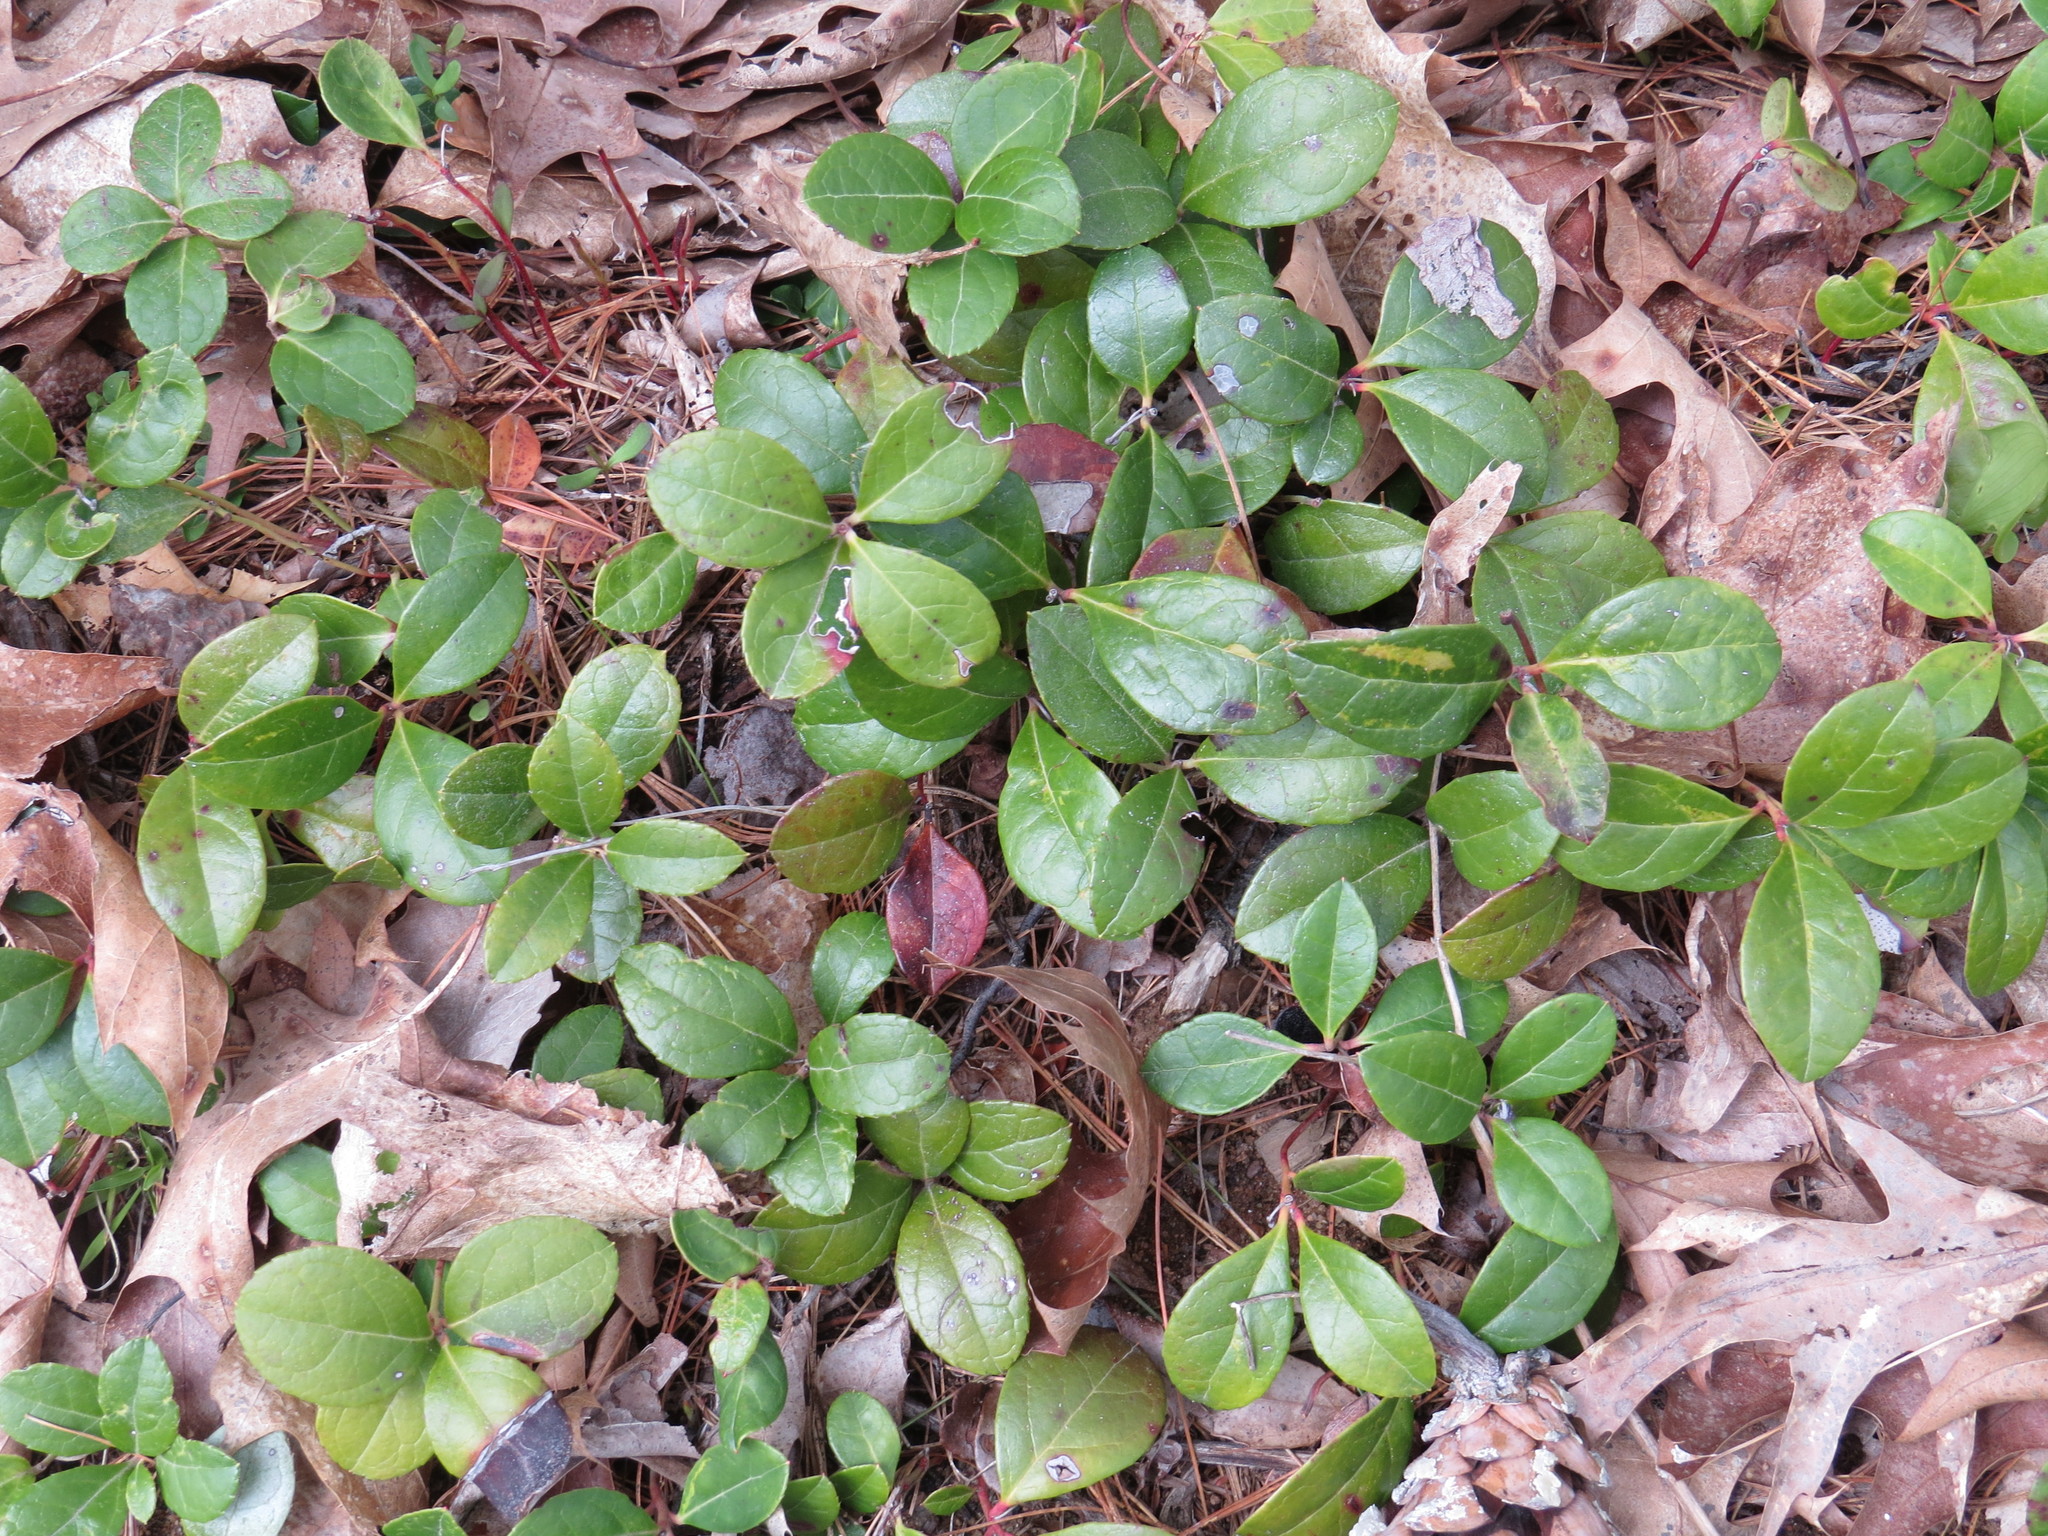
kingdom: Plantae
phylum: Tracheophyta
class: Magnoliopsida
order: Ericales
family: Ericaceae
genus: Gaultheria
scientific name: Gaultheria procumbens
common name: Checkerberry
